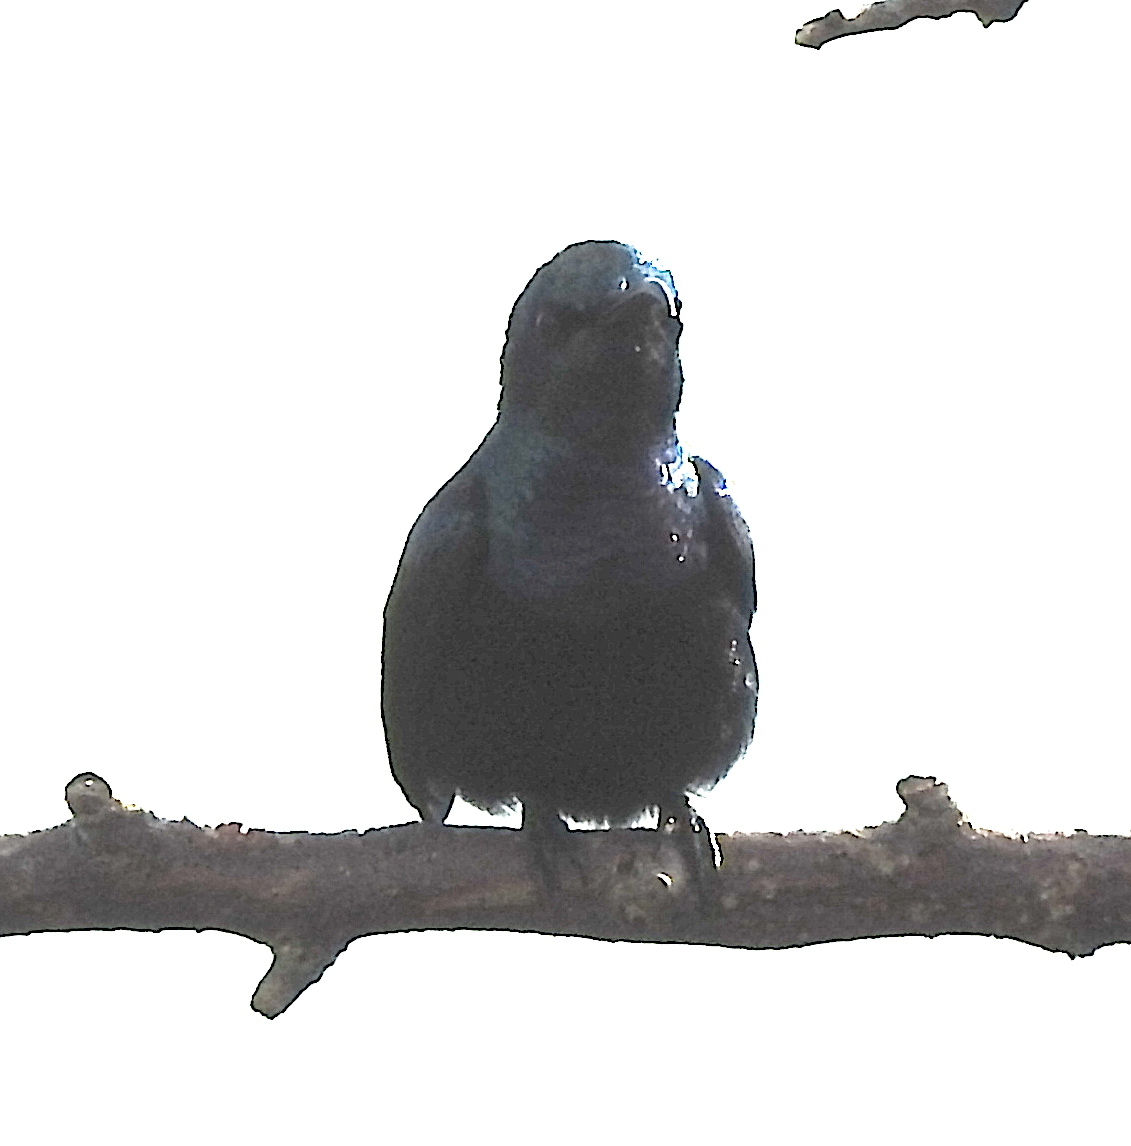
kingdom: Animalia
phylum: Chordata
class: Aves
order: Passeriformes
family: Nectariniidae
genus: Cinnyris
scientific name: Cinnyris lotenius
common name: Loten's sunbird
